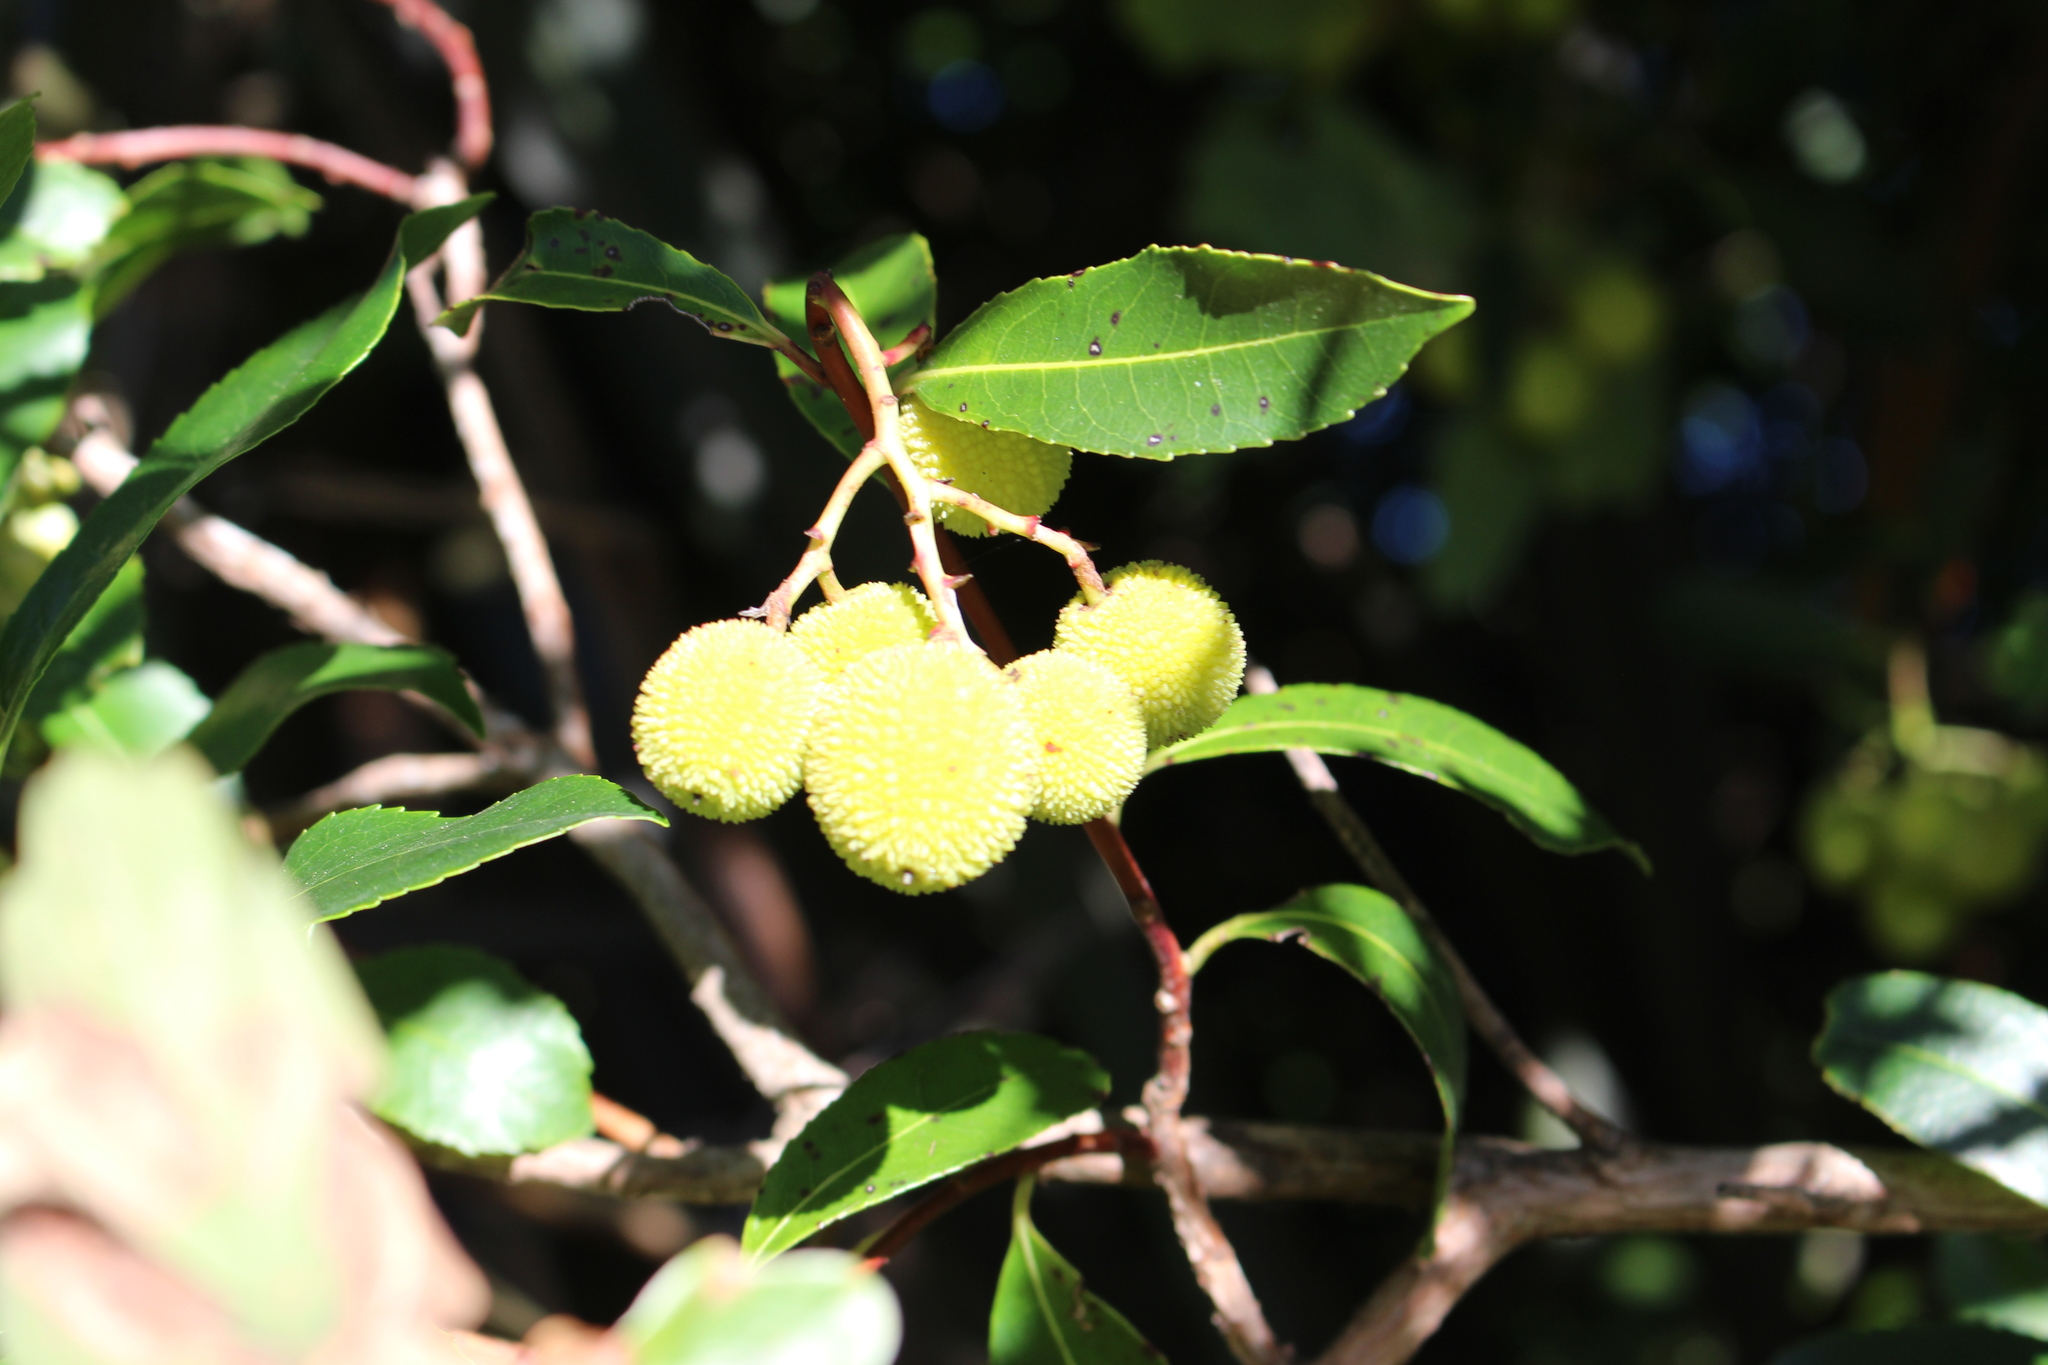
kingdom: Plantae
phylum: Tracheophyta
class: Magnoliopsida
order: Ericales
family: Ericaceae
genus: Arbutus
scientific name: Arbutus unedo
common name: Strawberry-tree
